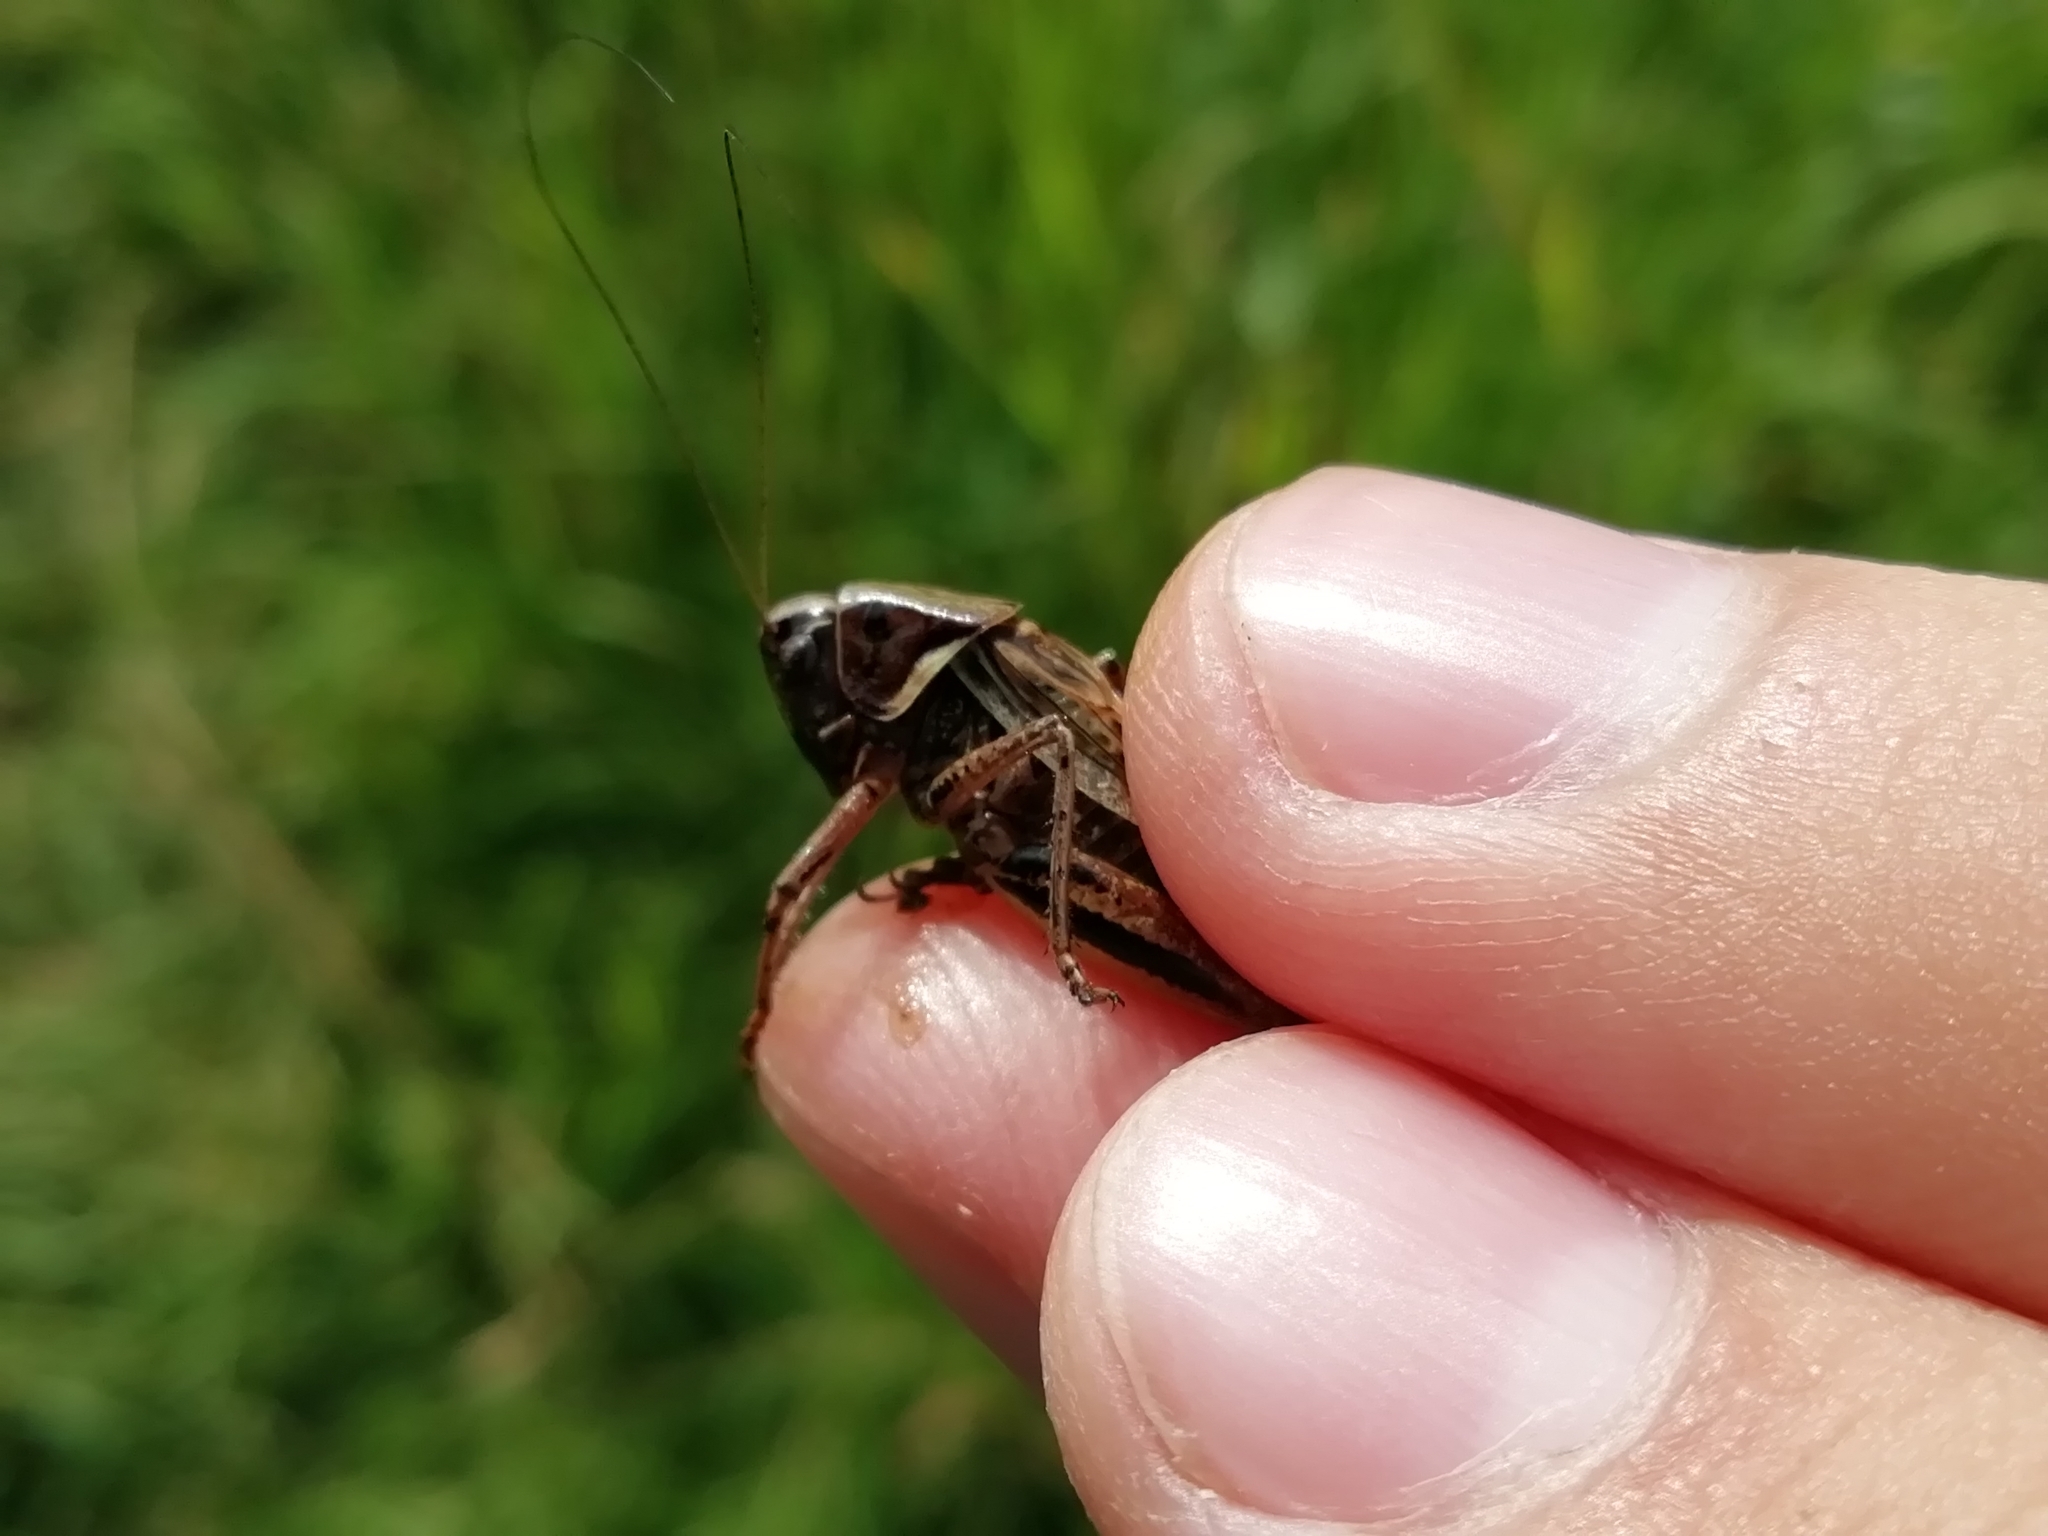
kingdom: Animalia
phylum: Arthropoda
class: Insecta
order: Orthoptera
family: Tettigoniidae
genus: Metrioptera
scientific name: Metrioptera brachyptera
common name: Bog bush-cricket
